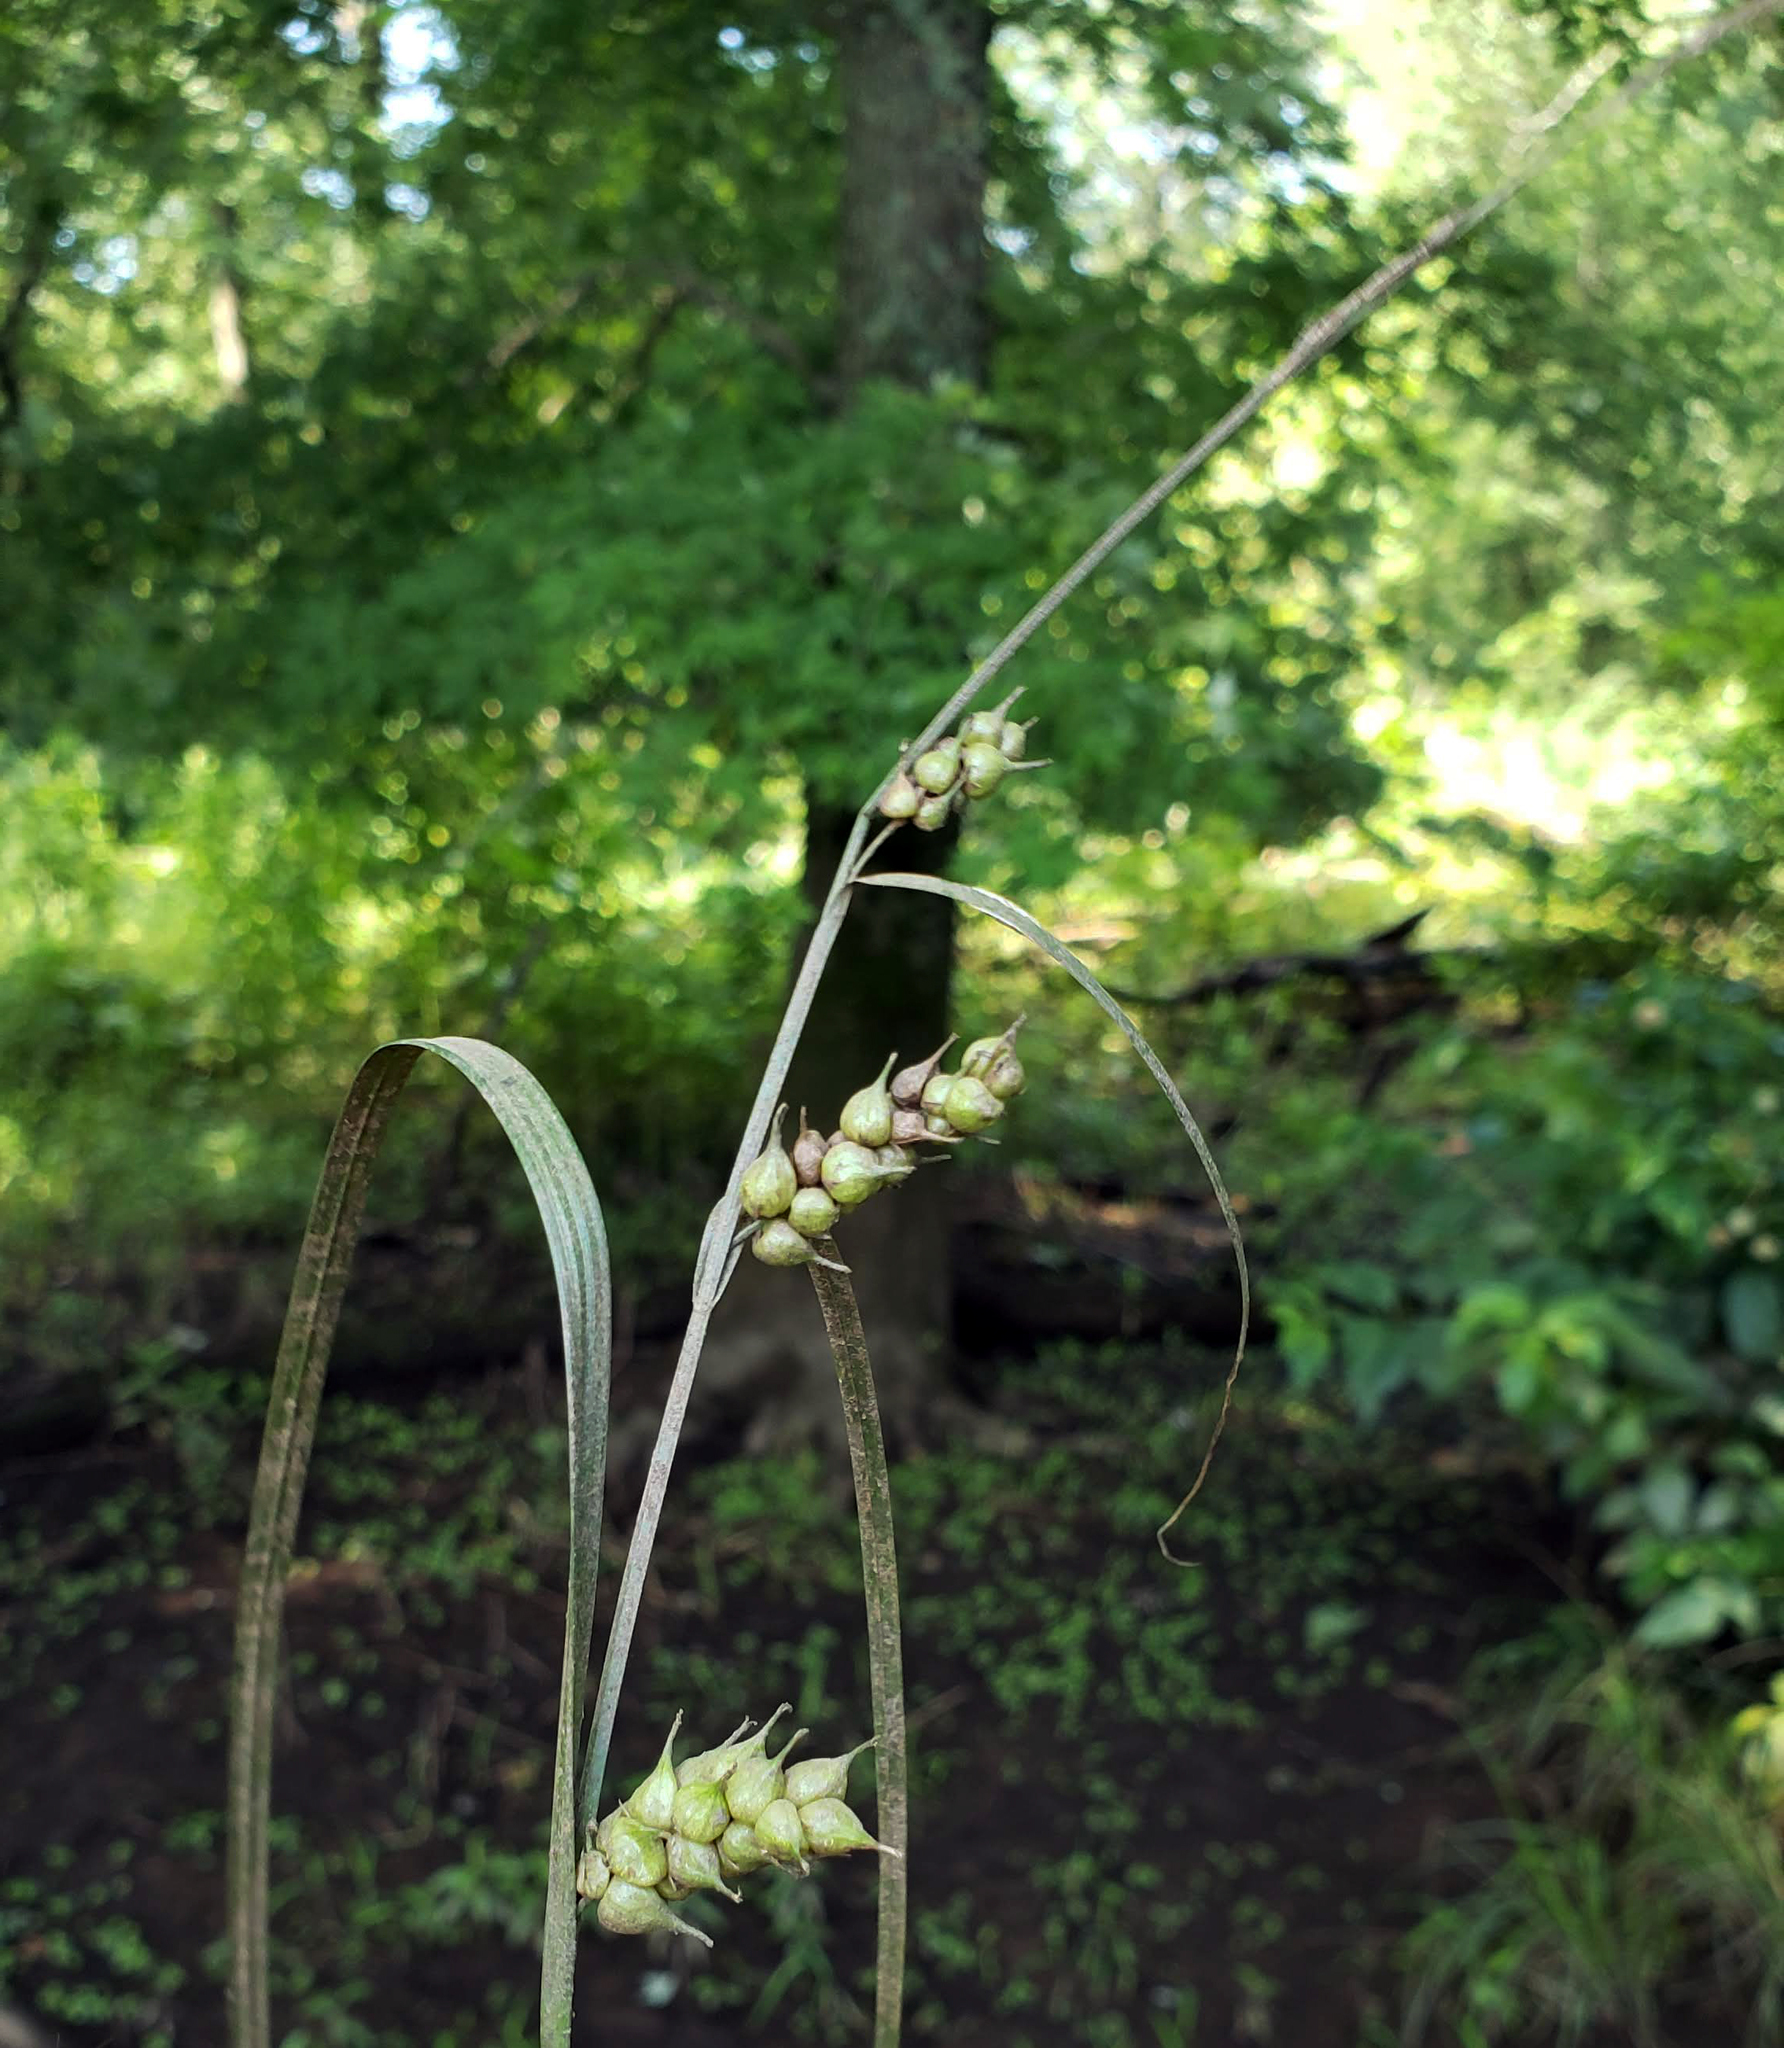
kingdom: Plantae
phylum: Tracheophyta
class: Liliopsida
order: Poales
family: Cyperaceae
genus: Carex
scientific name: Carex tuckermanii
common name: Tuckerman's sedge
